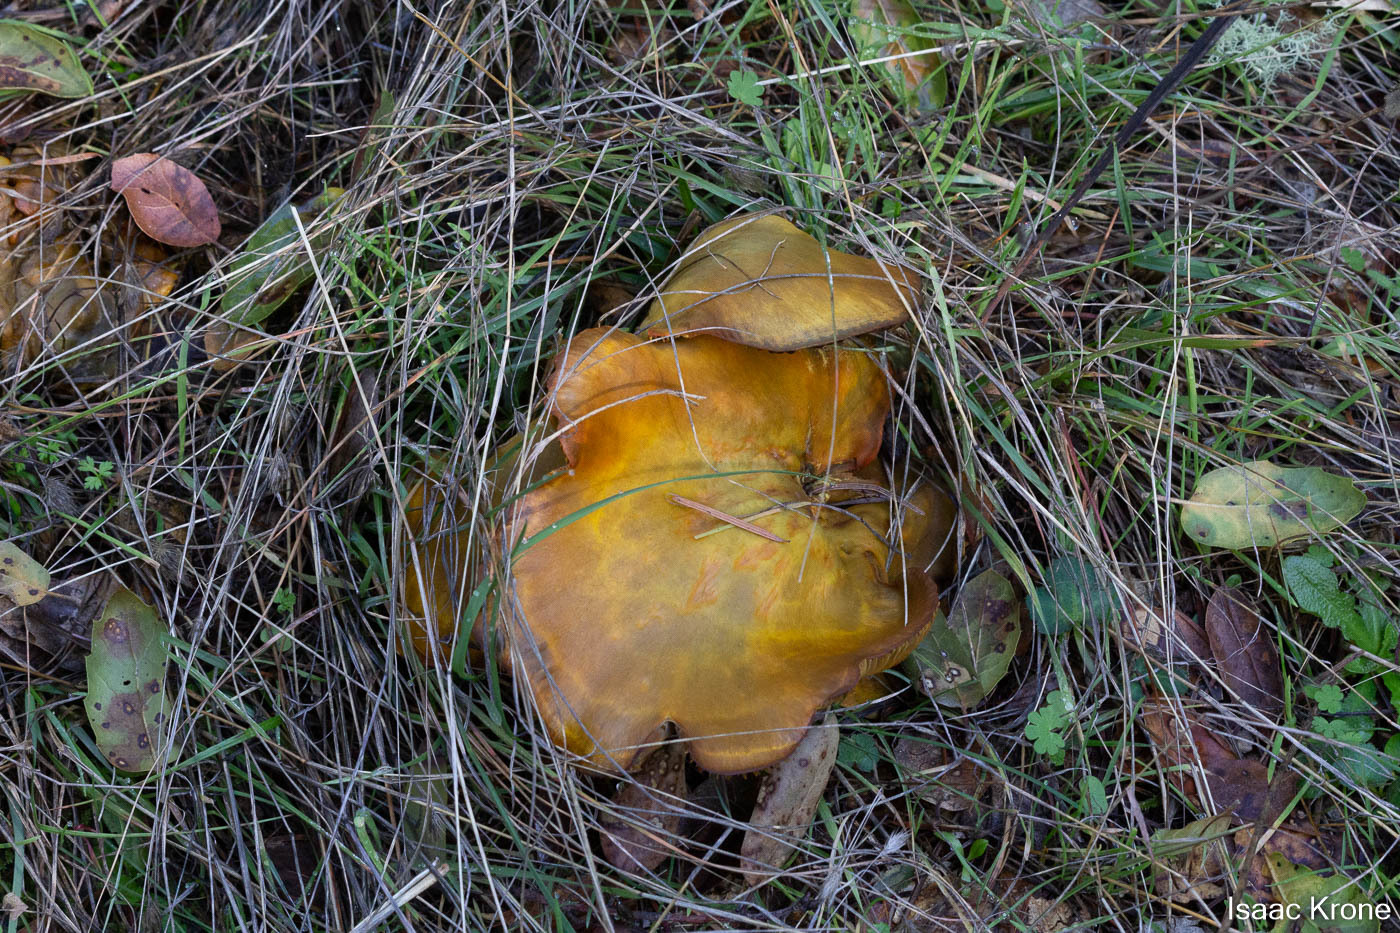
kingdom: Fungi
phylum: Basidiomycota
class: Agaricomycetes
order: Agaricales
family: Omphalotaceae
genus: Omphalotus
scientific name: Omphalotus olivascens
